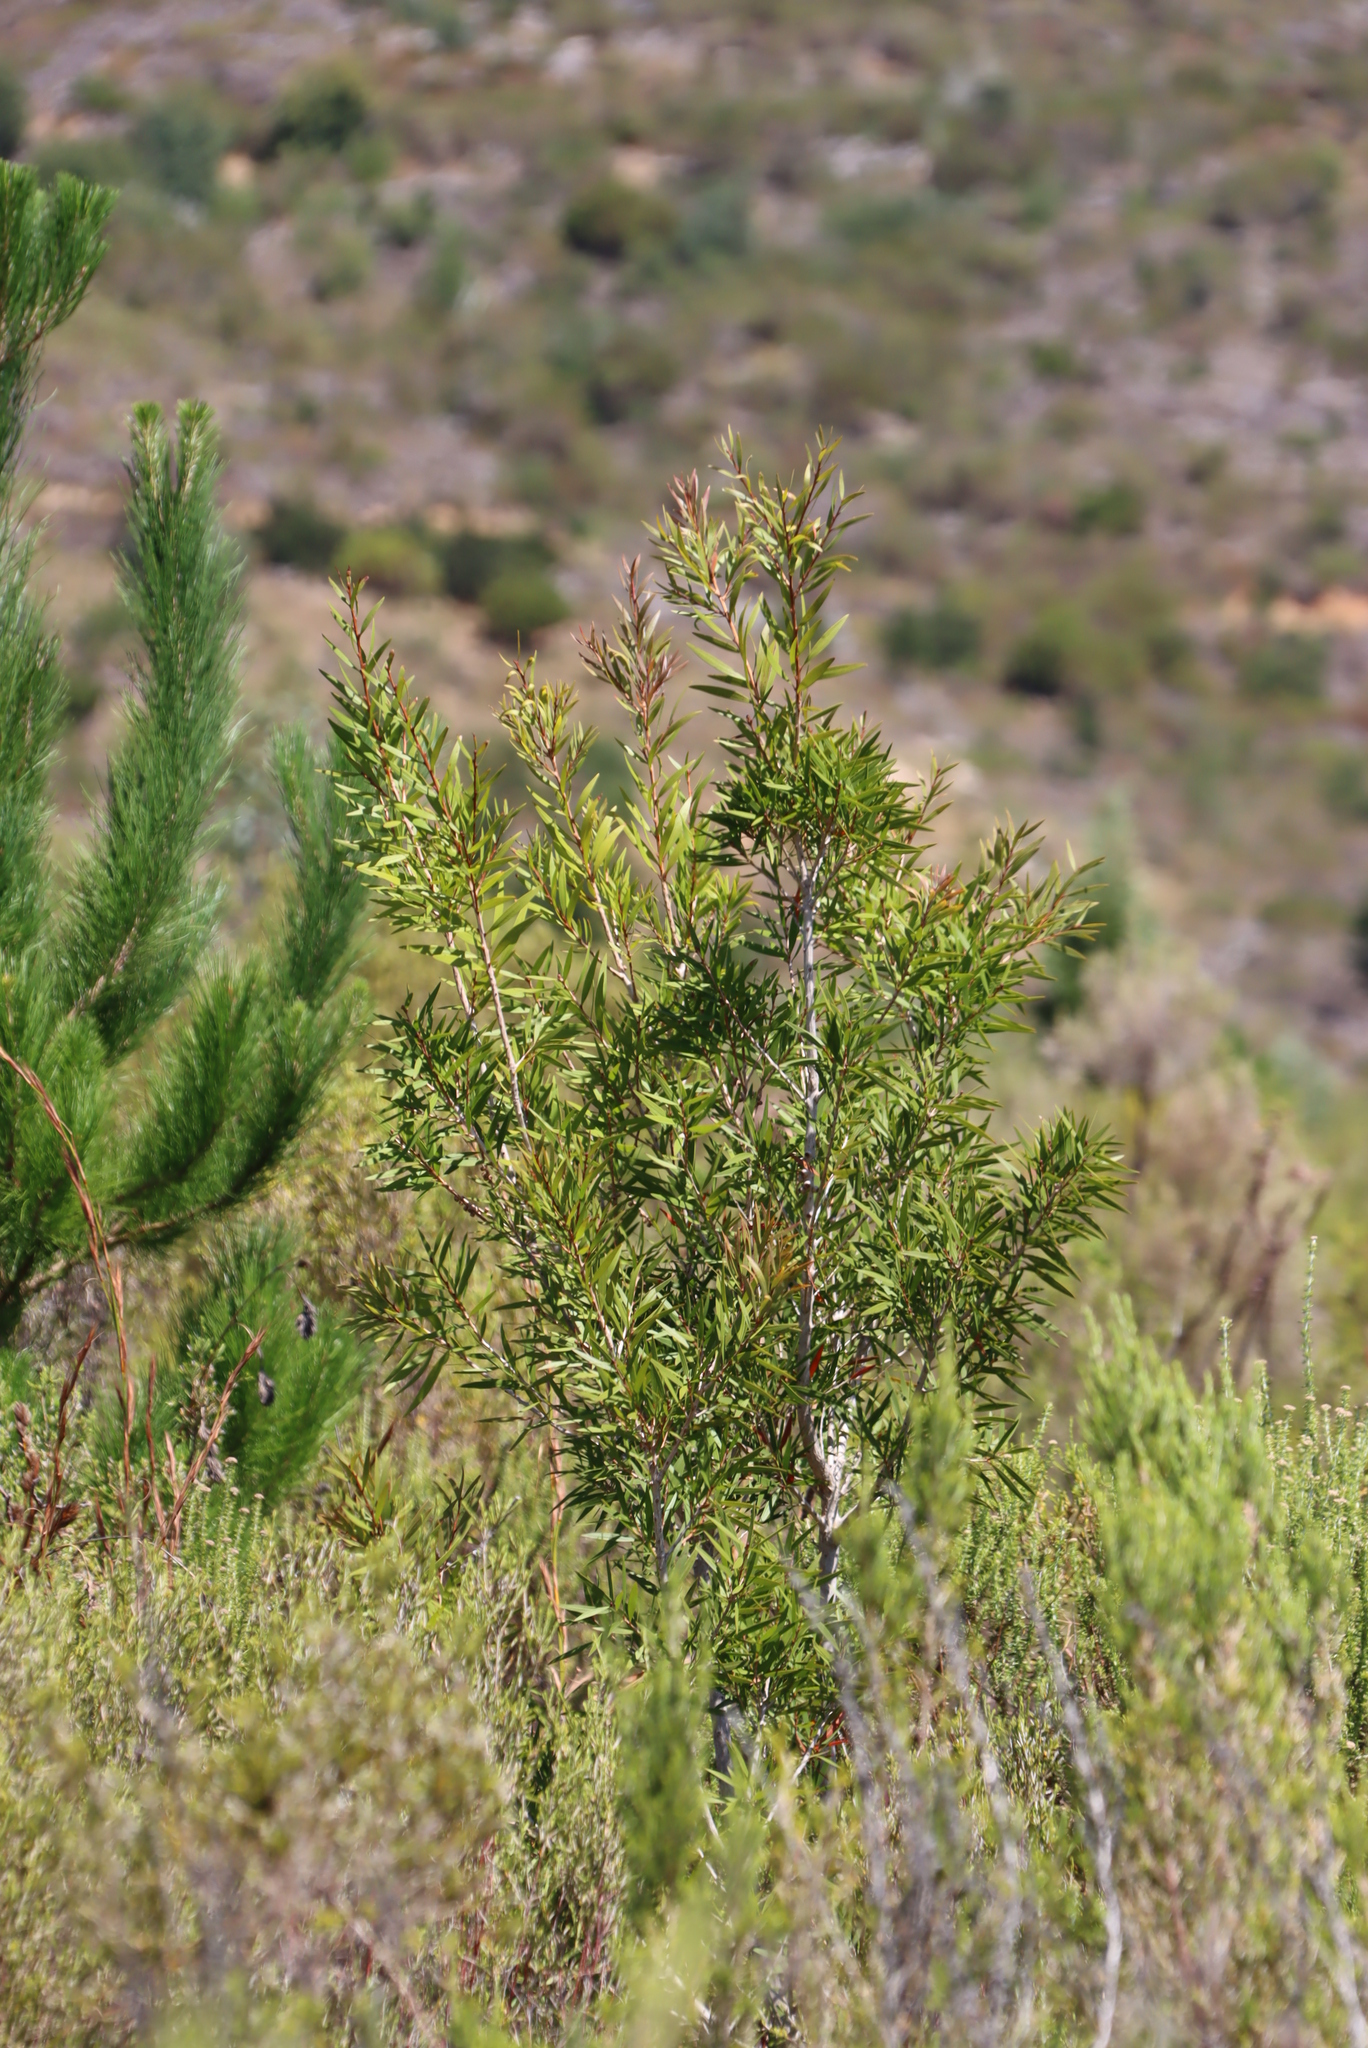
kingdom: Plantae
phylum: Tracheophyta
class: Magnoliopsida
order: Myrtales
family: Myrtaceae
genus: Callistemon
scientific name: Callistemon salignus
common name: White bottlebrush
